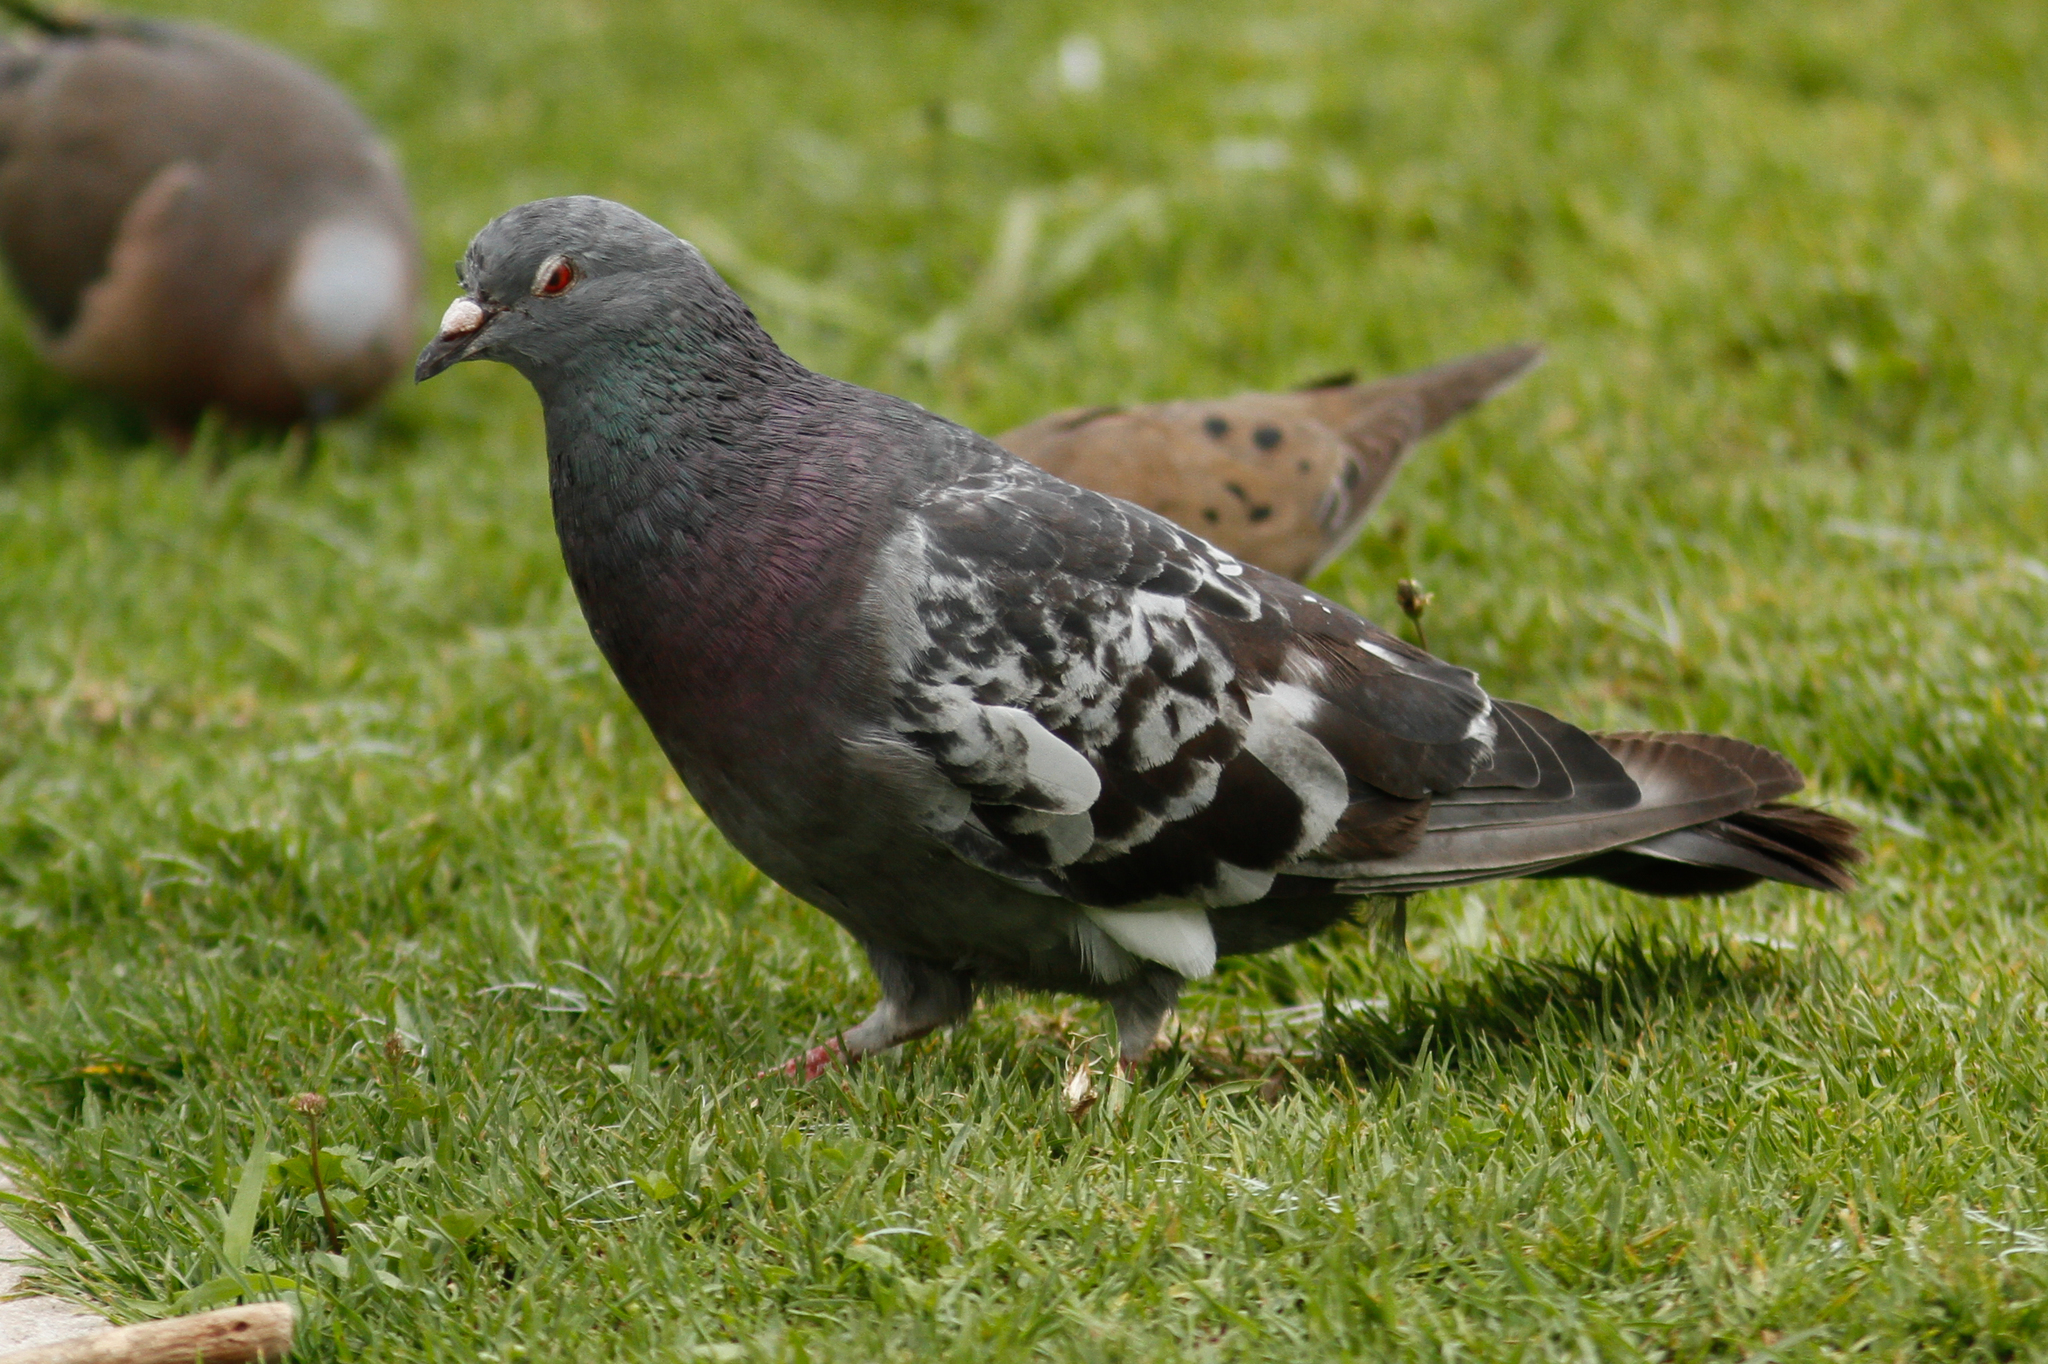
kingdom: Animalia
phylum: Chordata
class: Aves
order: Columbiformes
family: Columbidae
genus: Columba
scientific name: Columba livia
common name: Rock pigeon
